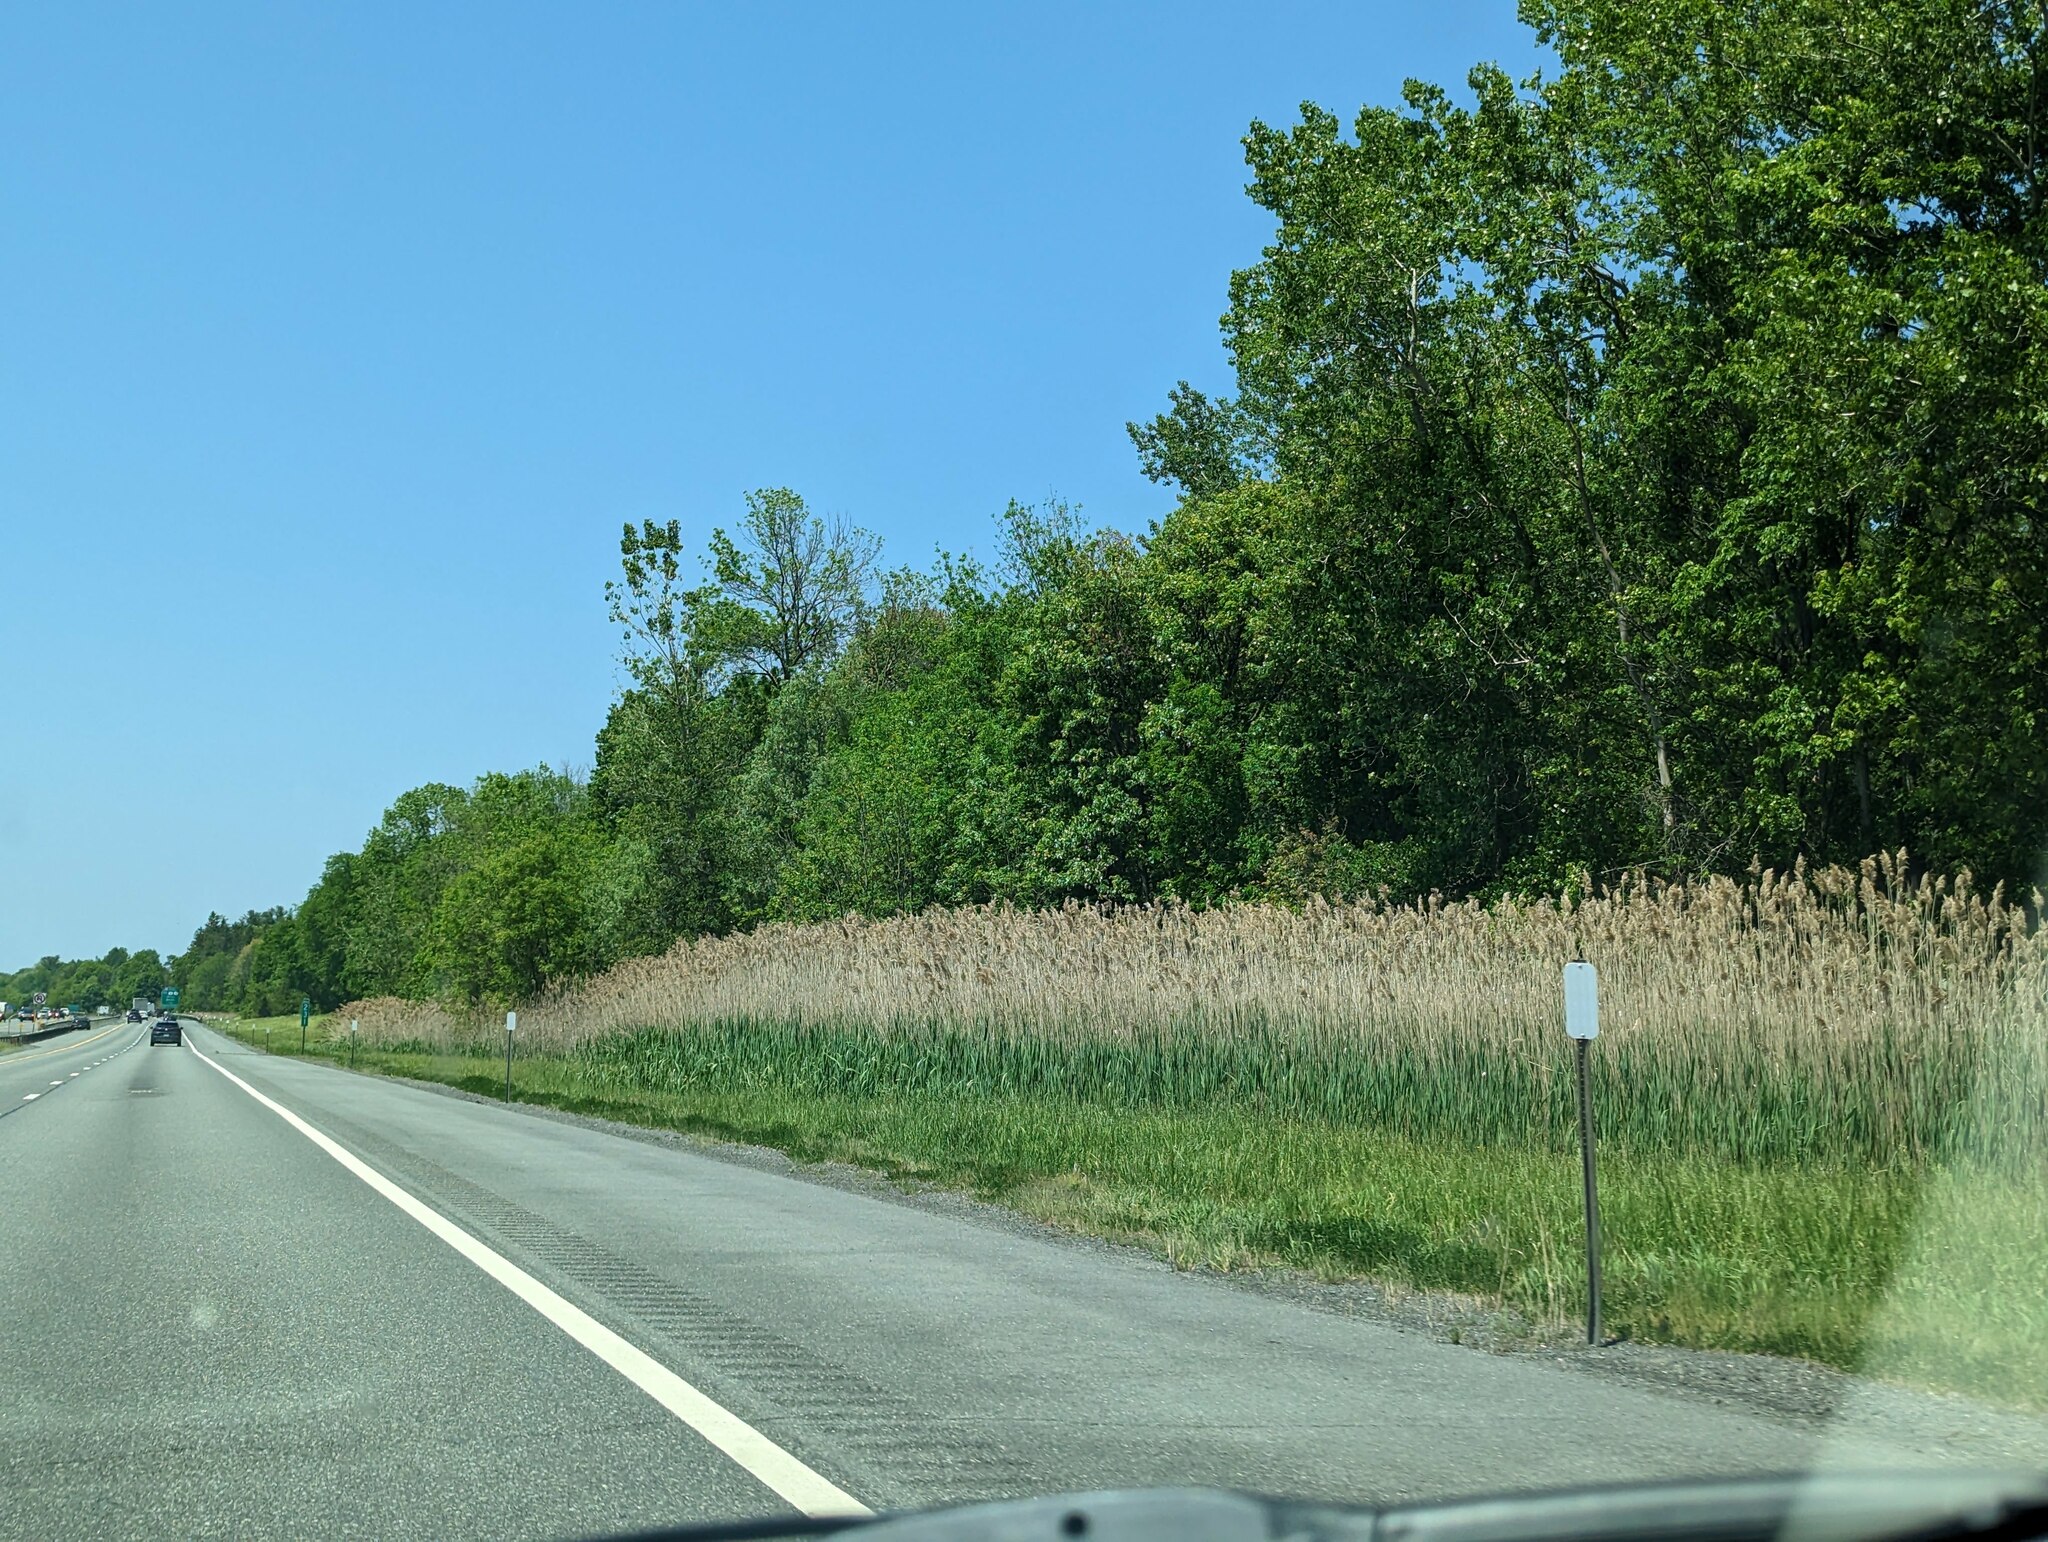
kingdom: Plantae
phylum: Tracheophyta
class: Liliopsida
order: Poales
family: Poaceae
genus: Phragmites
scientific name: Phragmites australis
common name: Common reed
